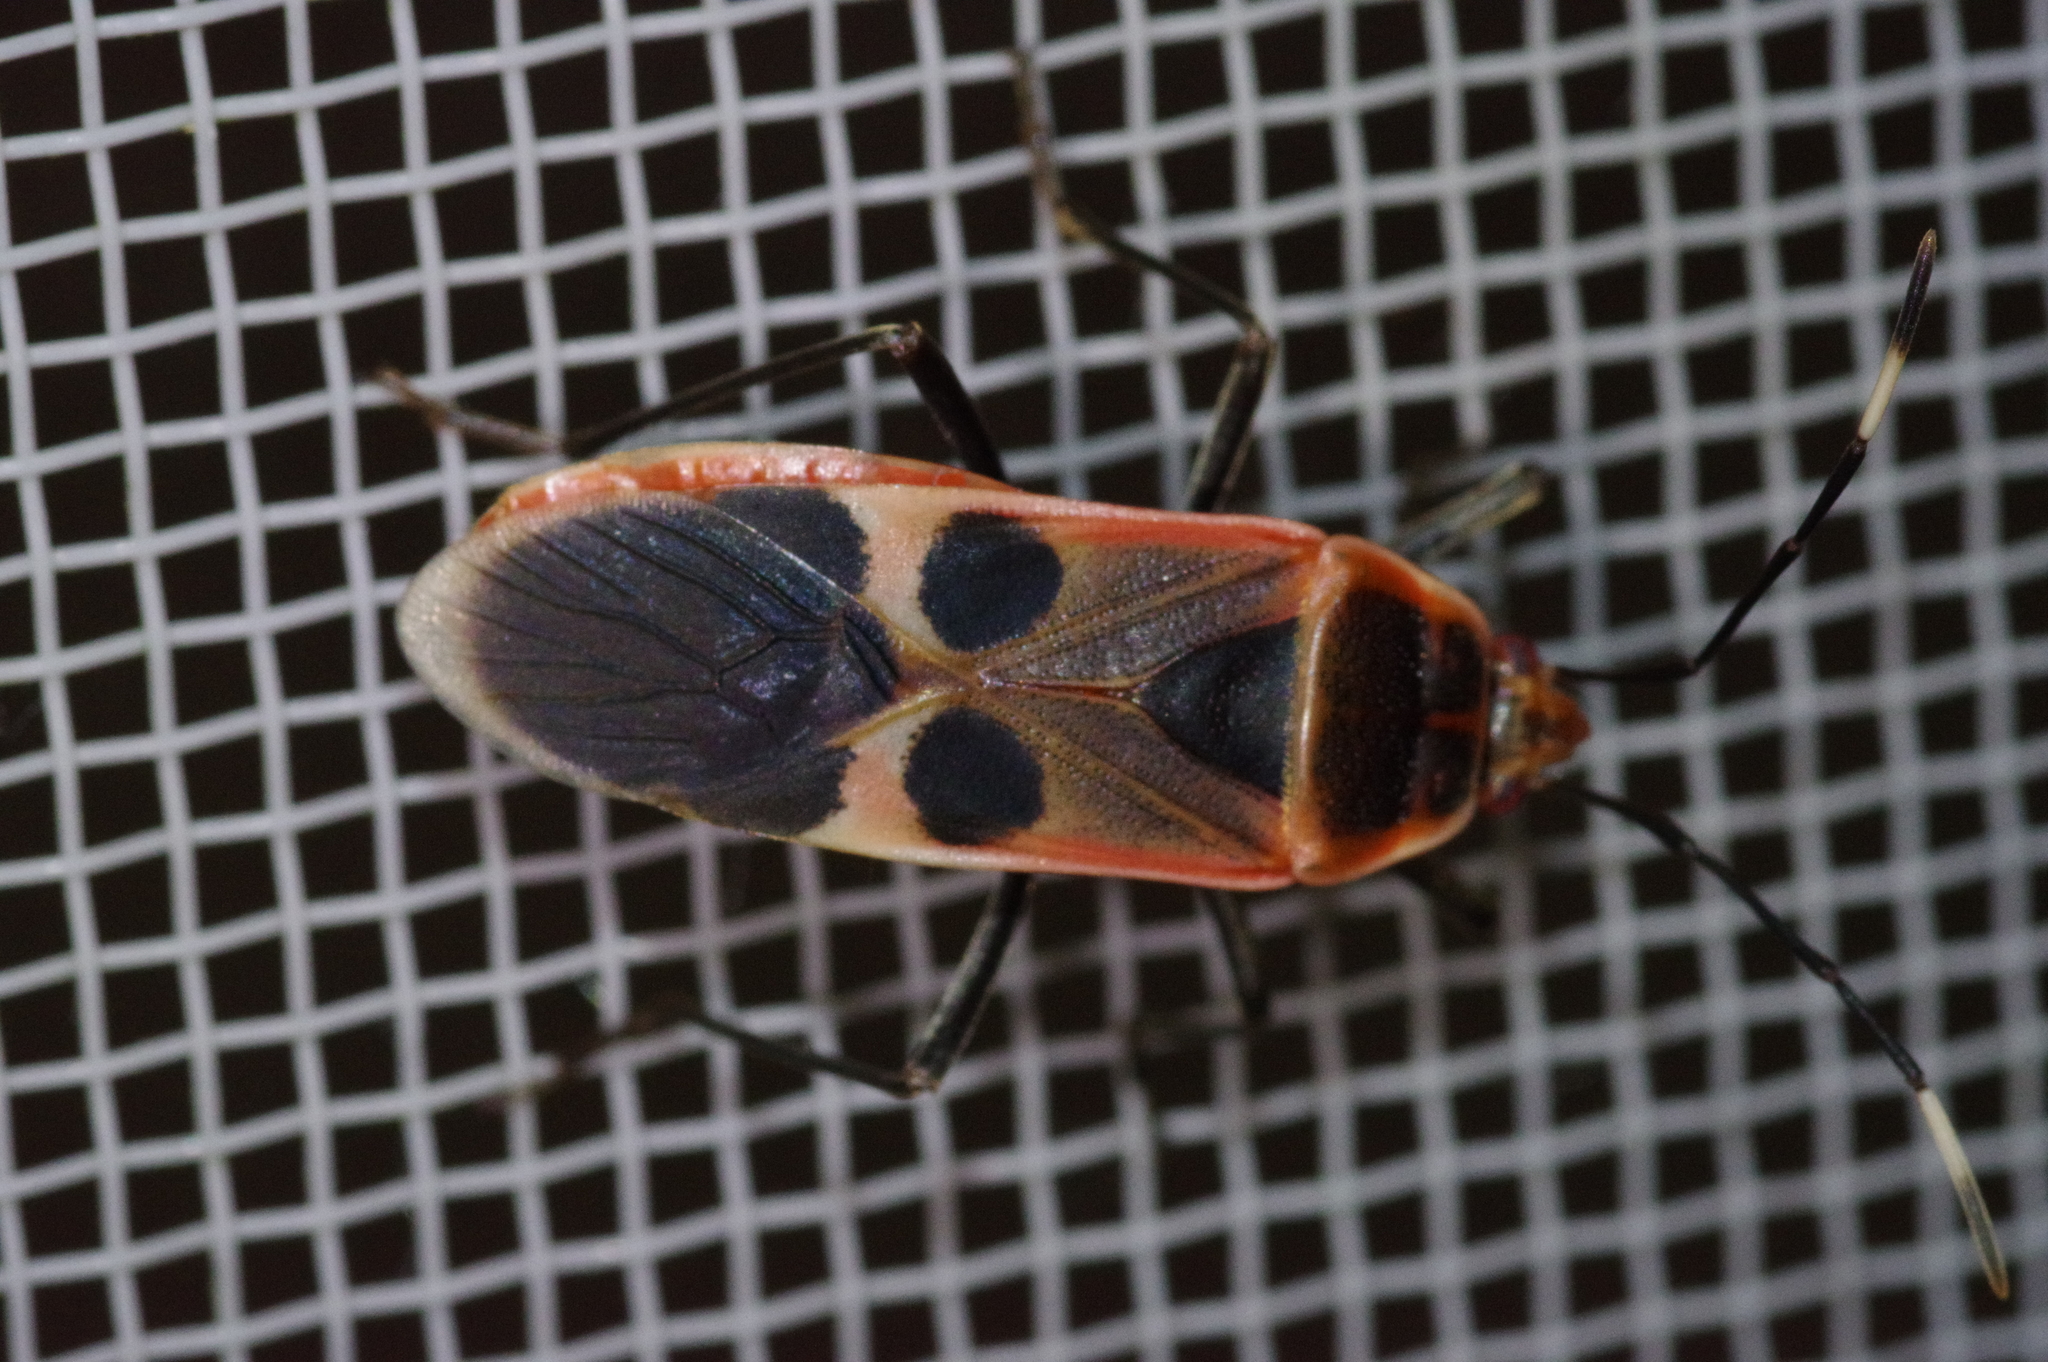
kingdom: Animalia
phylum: Arthropoda
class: Insecta
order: Hemiptera
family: Largidae
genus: Physopelta
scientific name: Physopelta gutta
